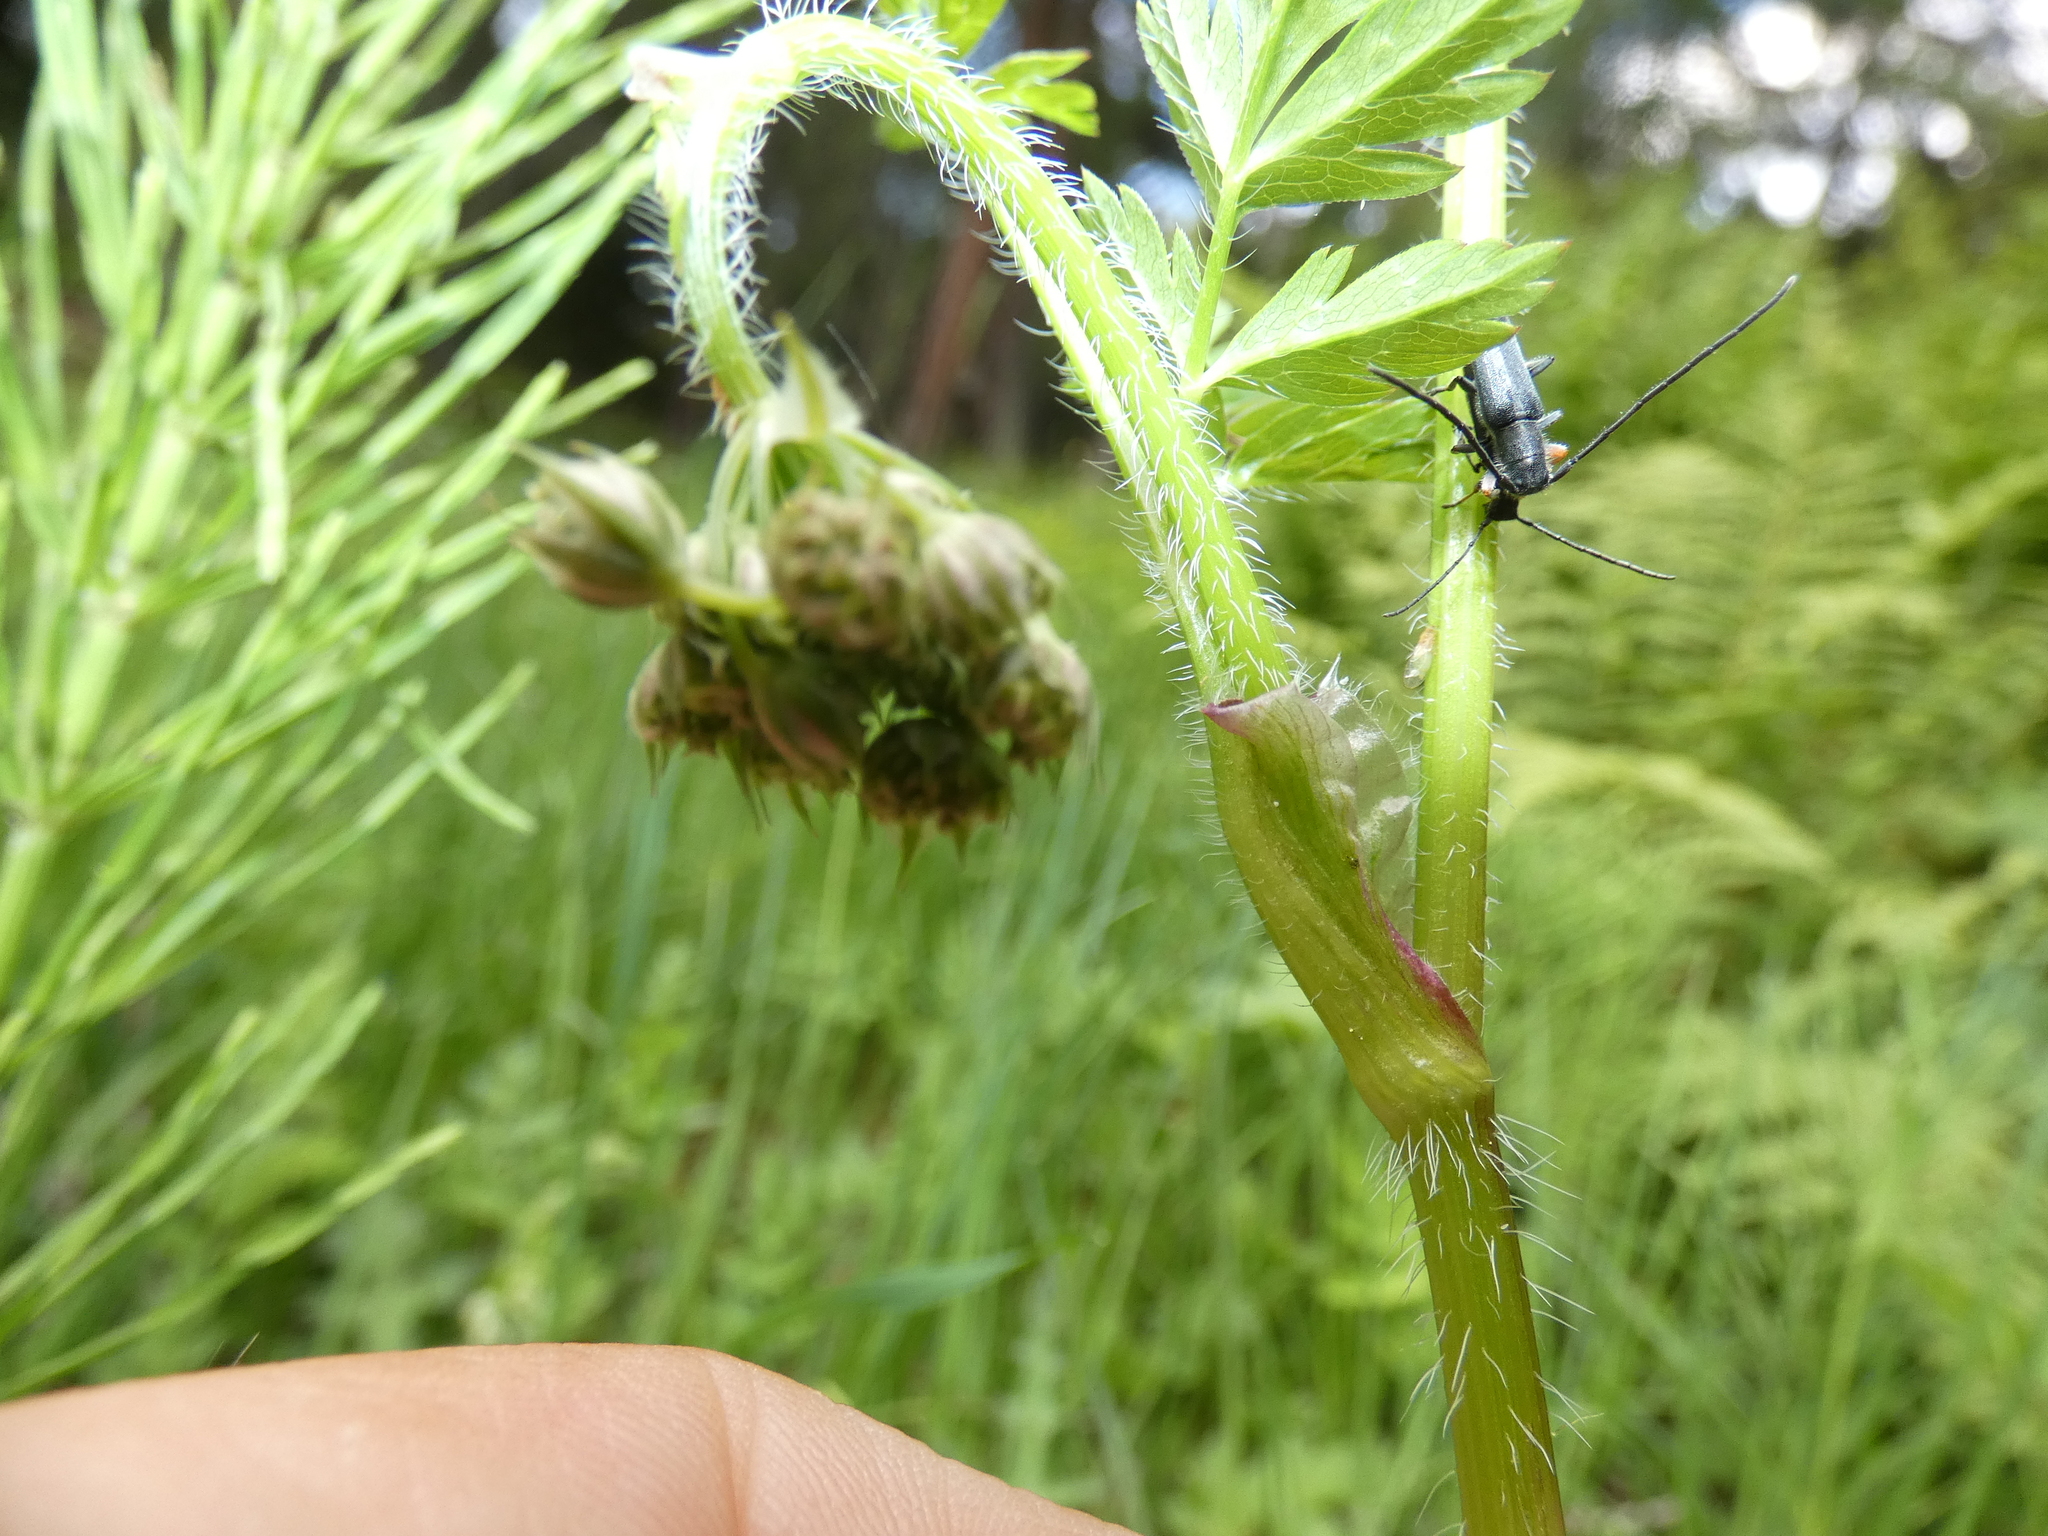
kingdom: Animalia
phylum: Arthropoda
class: Insecta
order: Coleoptera
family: Cerambycidae
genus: Phytoecia
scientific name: Phytoecia cylindrica
